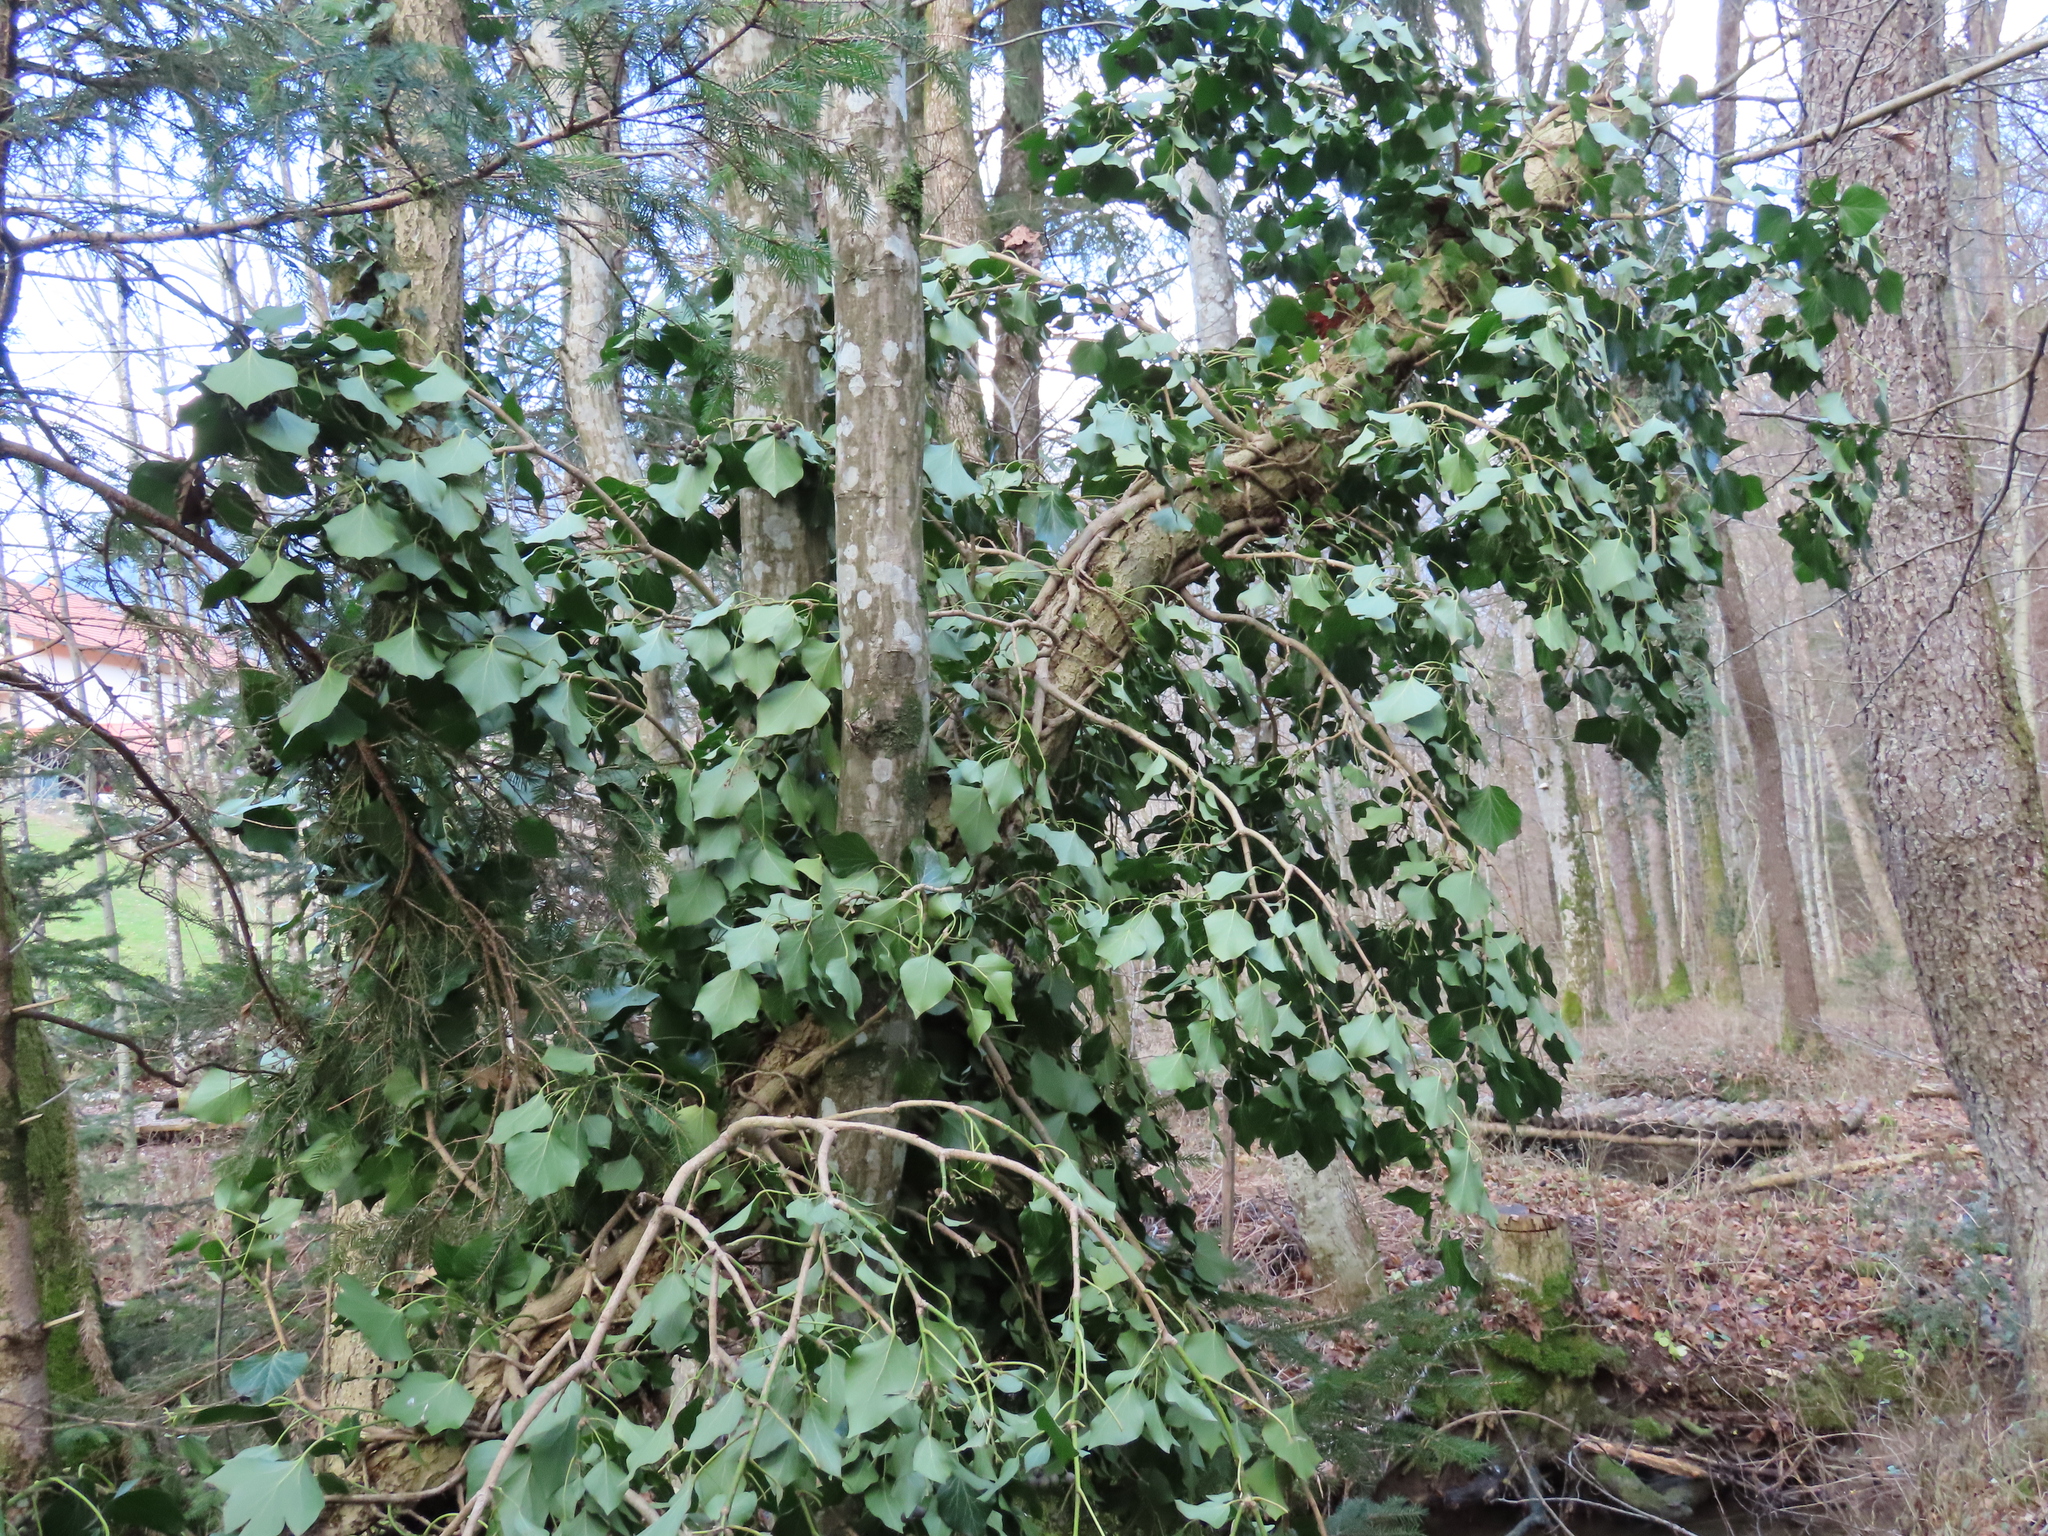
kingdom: Plantae
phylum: Tracheophyta
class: Magnoliopsida
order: Apiales
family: Araliaceae
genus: Hedera
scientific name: Hedera helix
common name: Ivy
